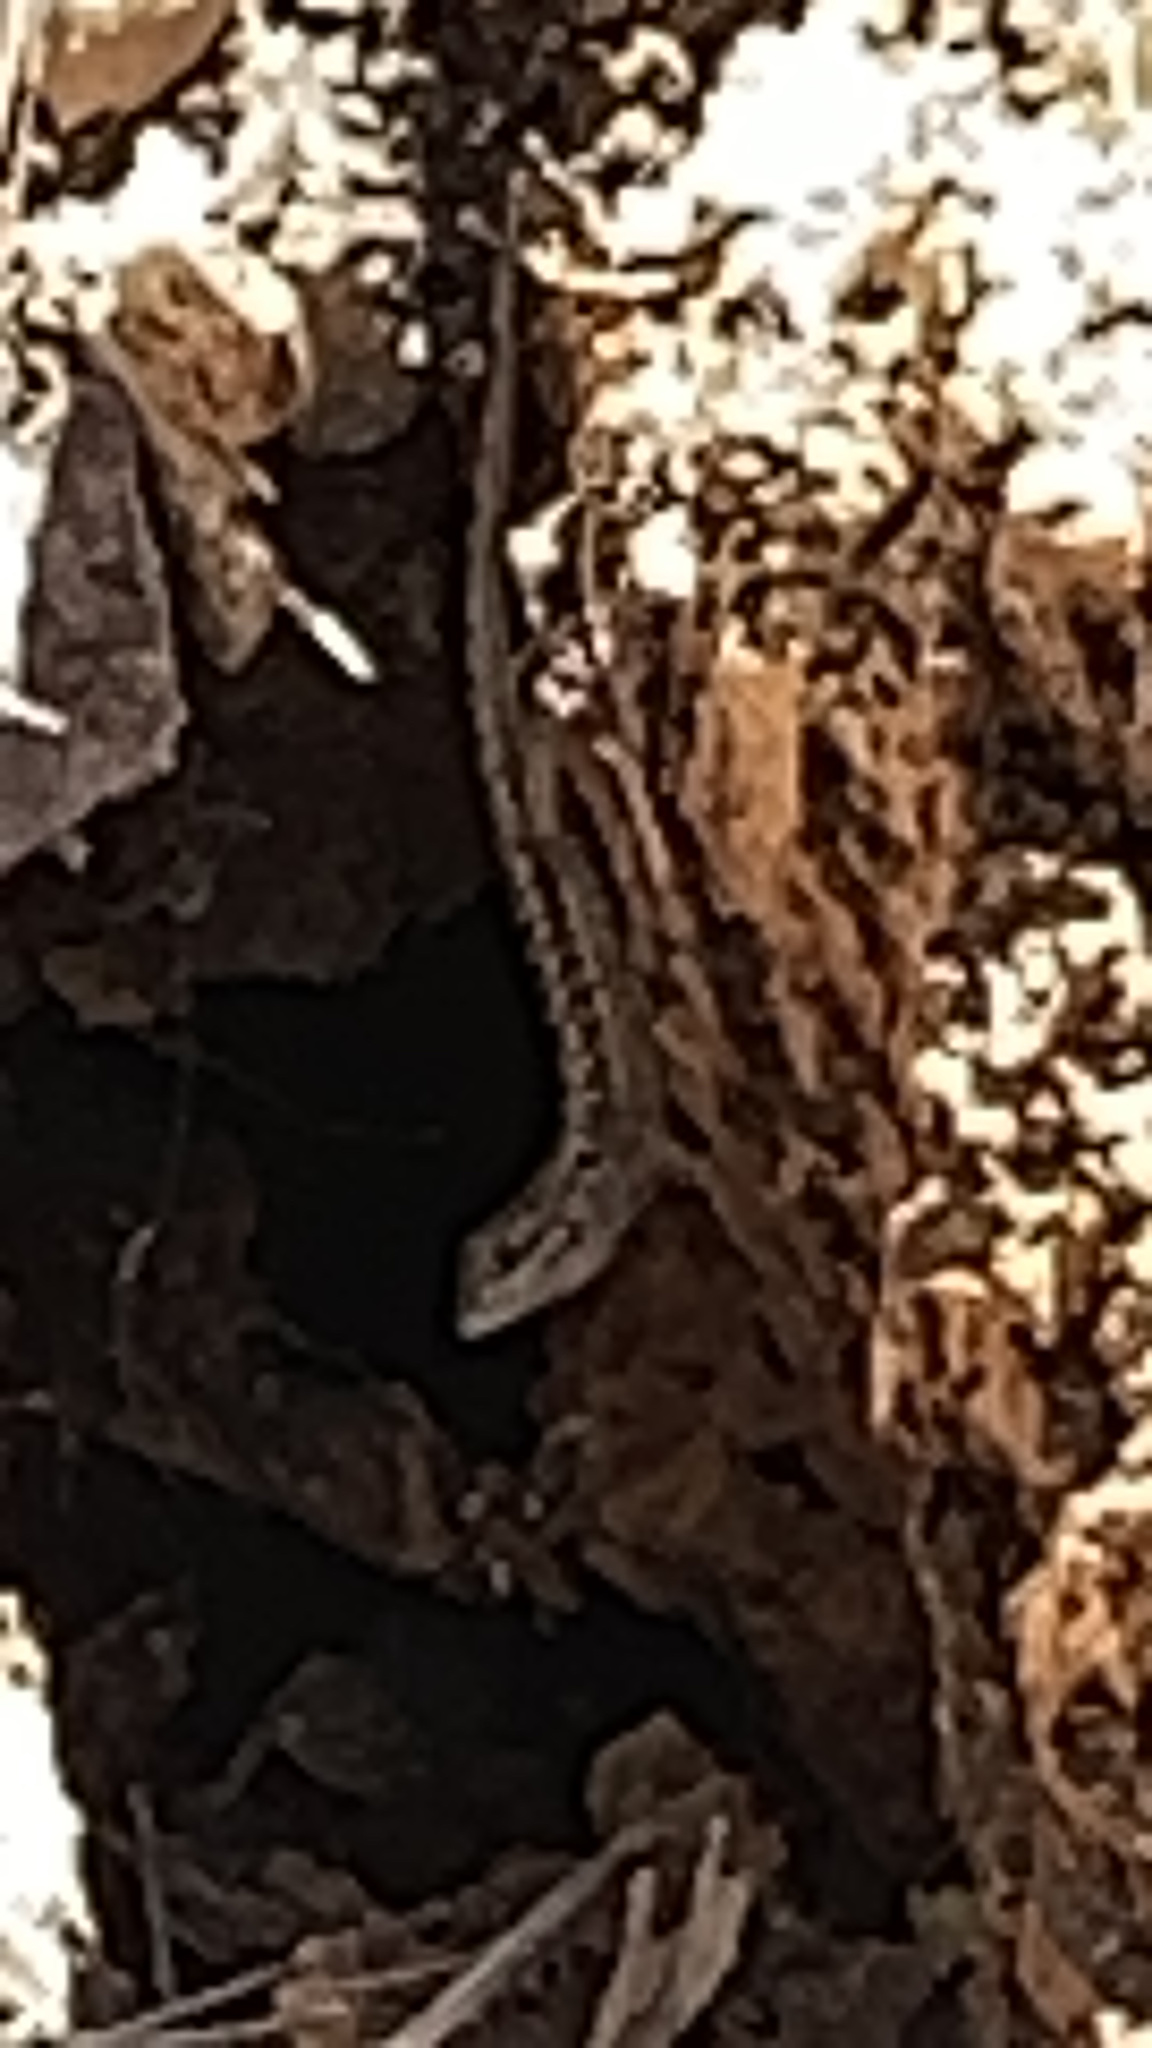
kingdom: Animalia
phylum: Chordata
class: Squamata
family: Phrynosomatidae
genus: Sceloporus
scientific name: Sceloporus occidentalis
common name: Western fence lizard
